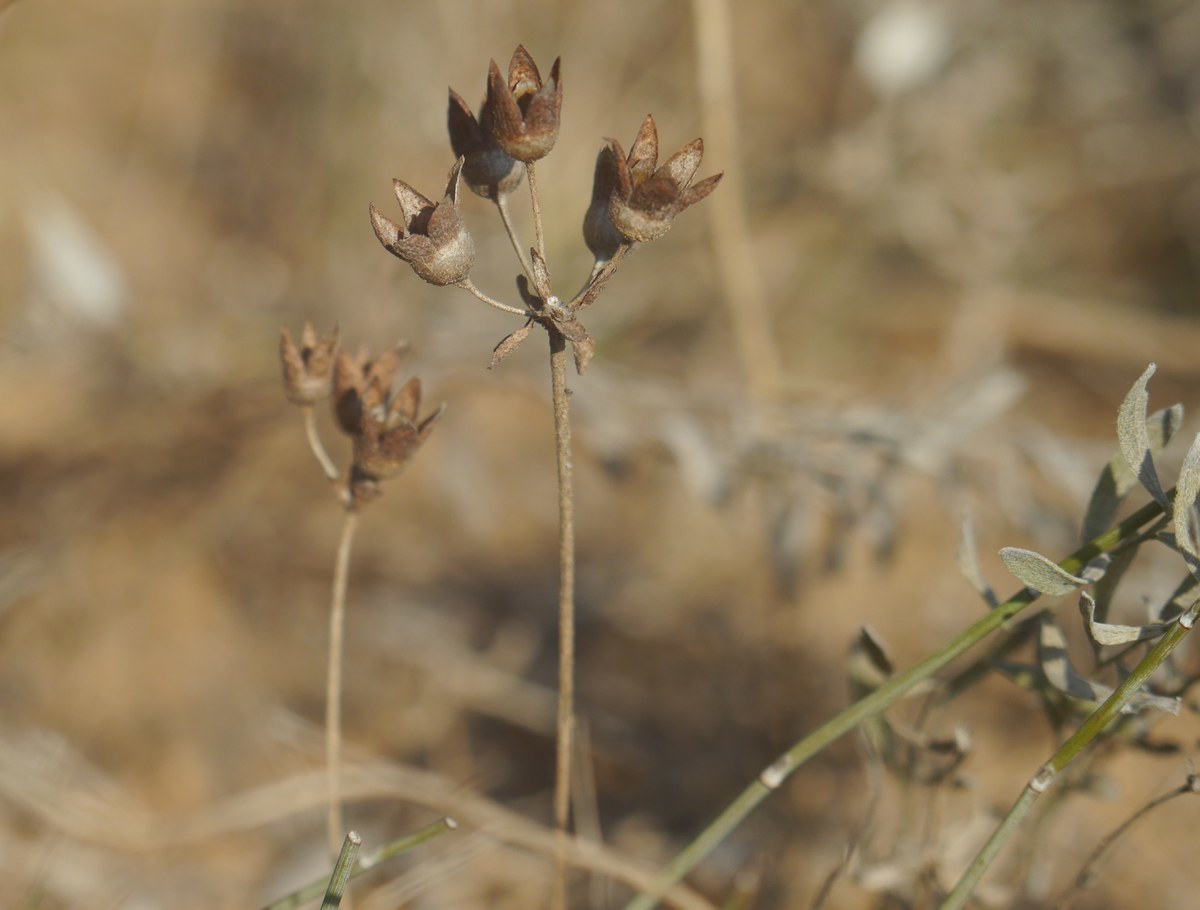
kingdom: Plantae
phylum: Tracheophyta
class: Magnoliopsida
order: Ericales
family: Primulaceae
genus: Androsace
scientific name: Androsace maxima
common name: Annual androsace
